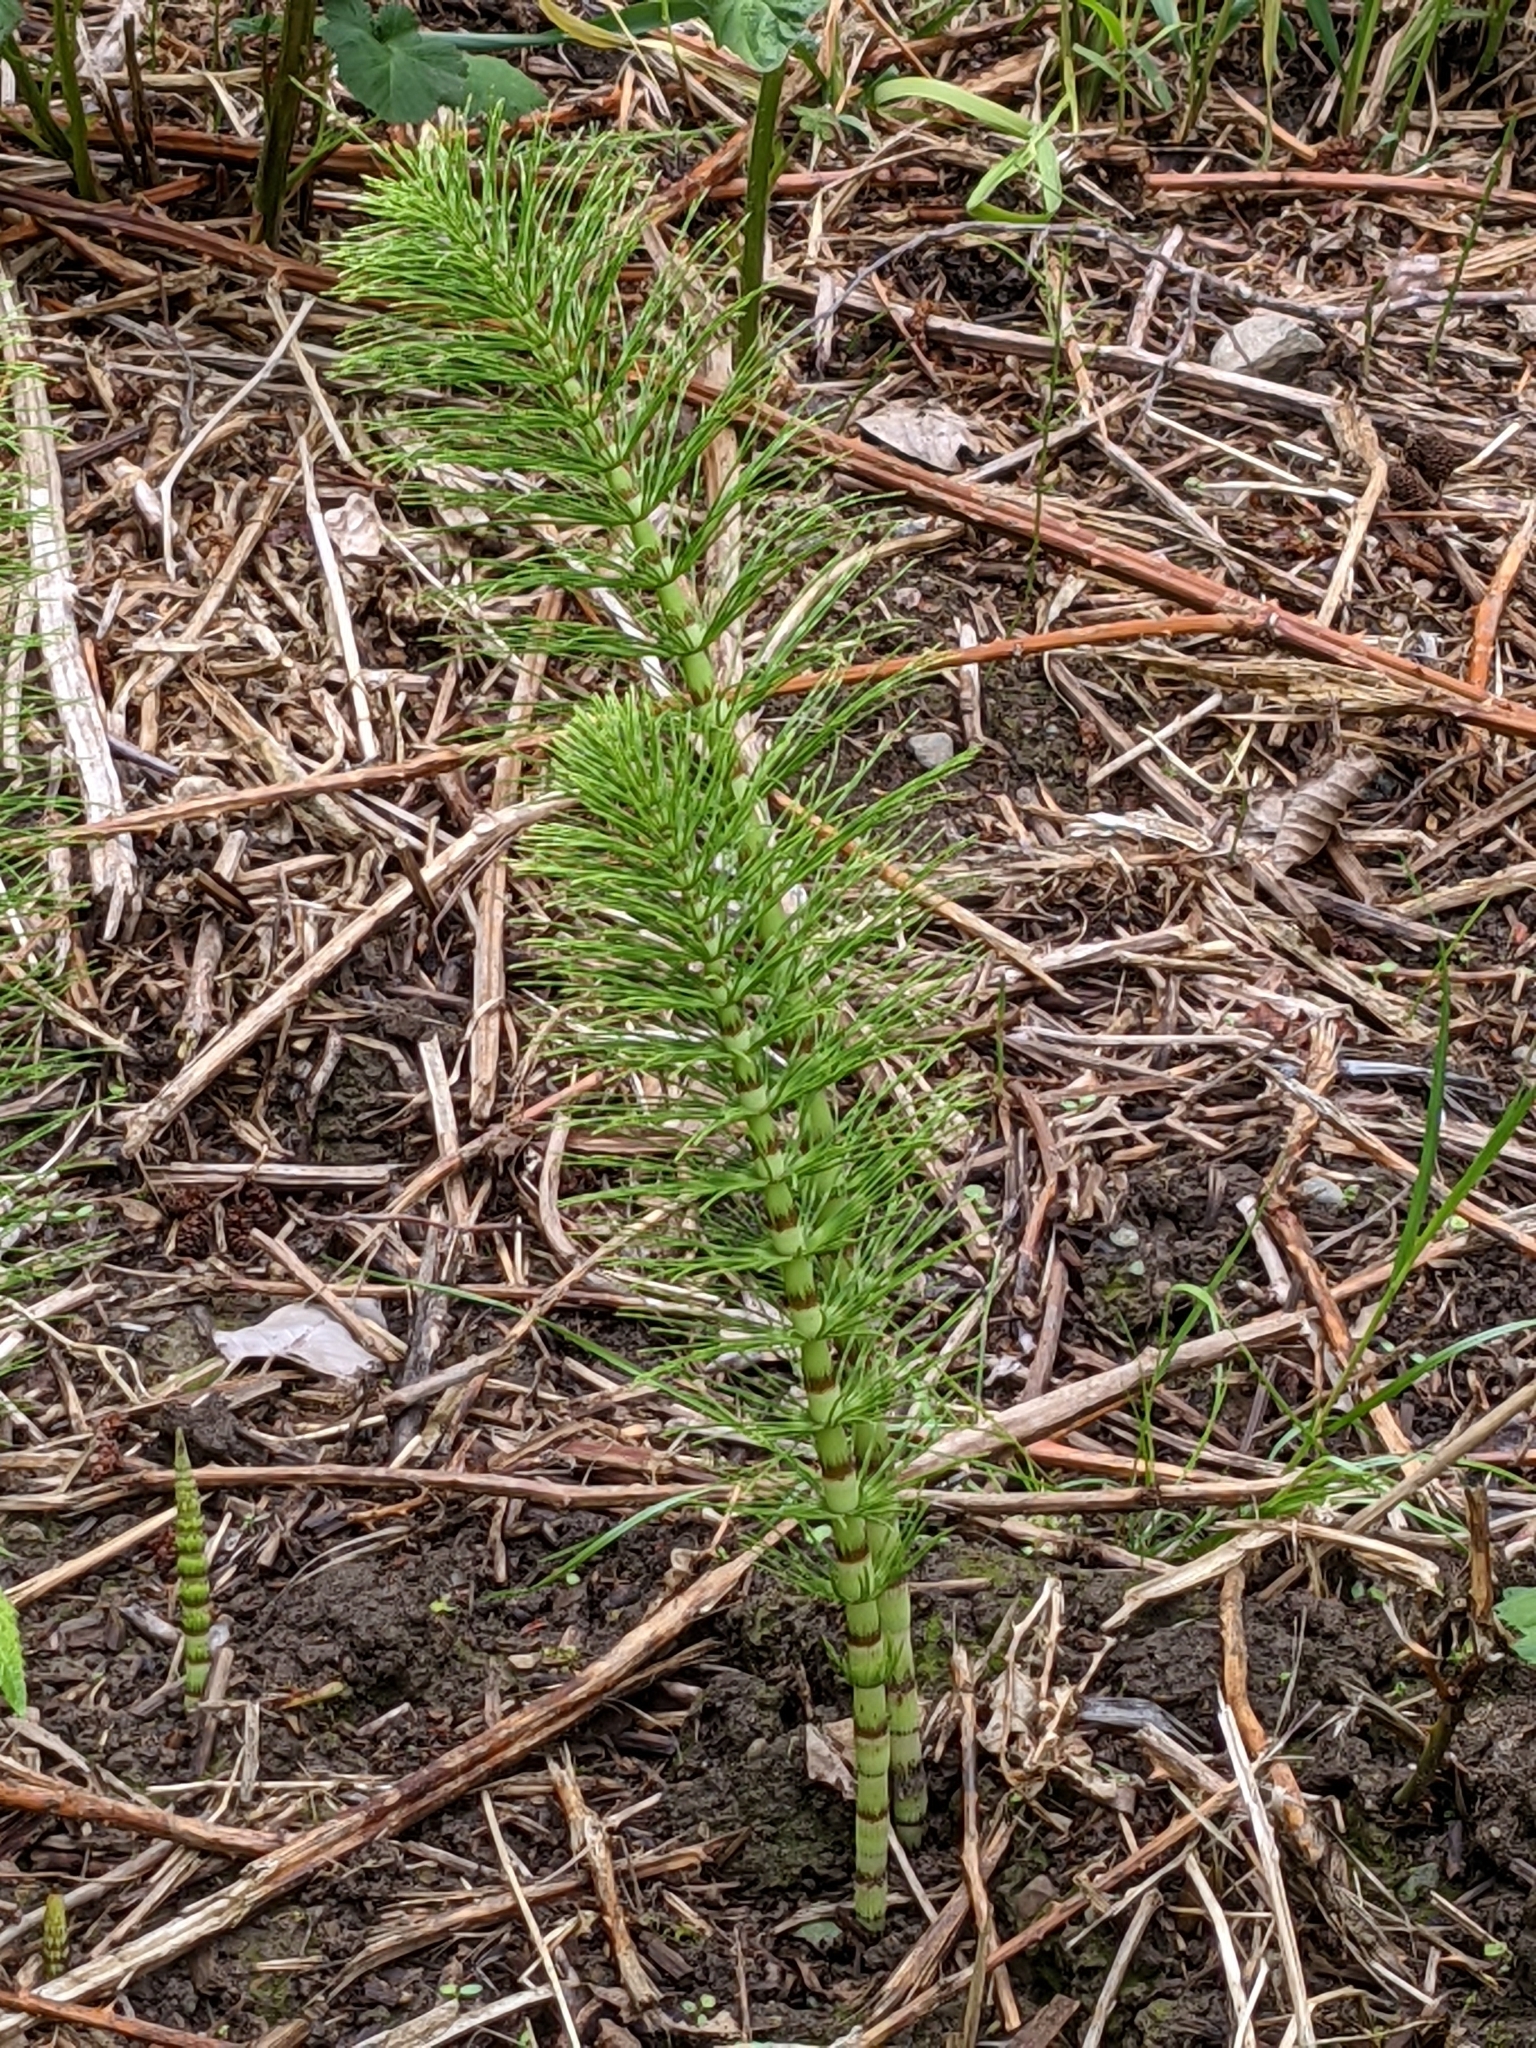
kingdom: Plantae
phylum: Tracheophyta
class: Polypodiopsida
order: Equisetales
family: Equisetaceae
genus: Equisetum
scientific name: Equisetum telmateia
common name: Great horsetail
